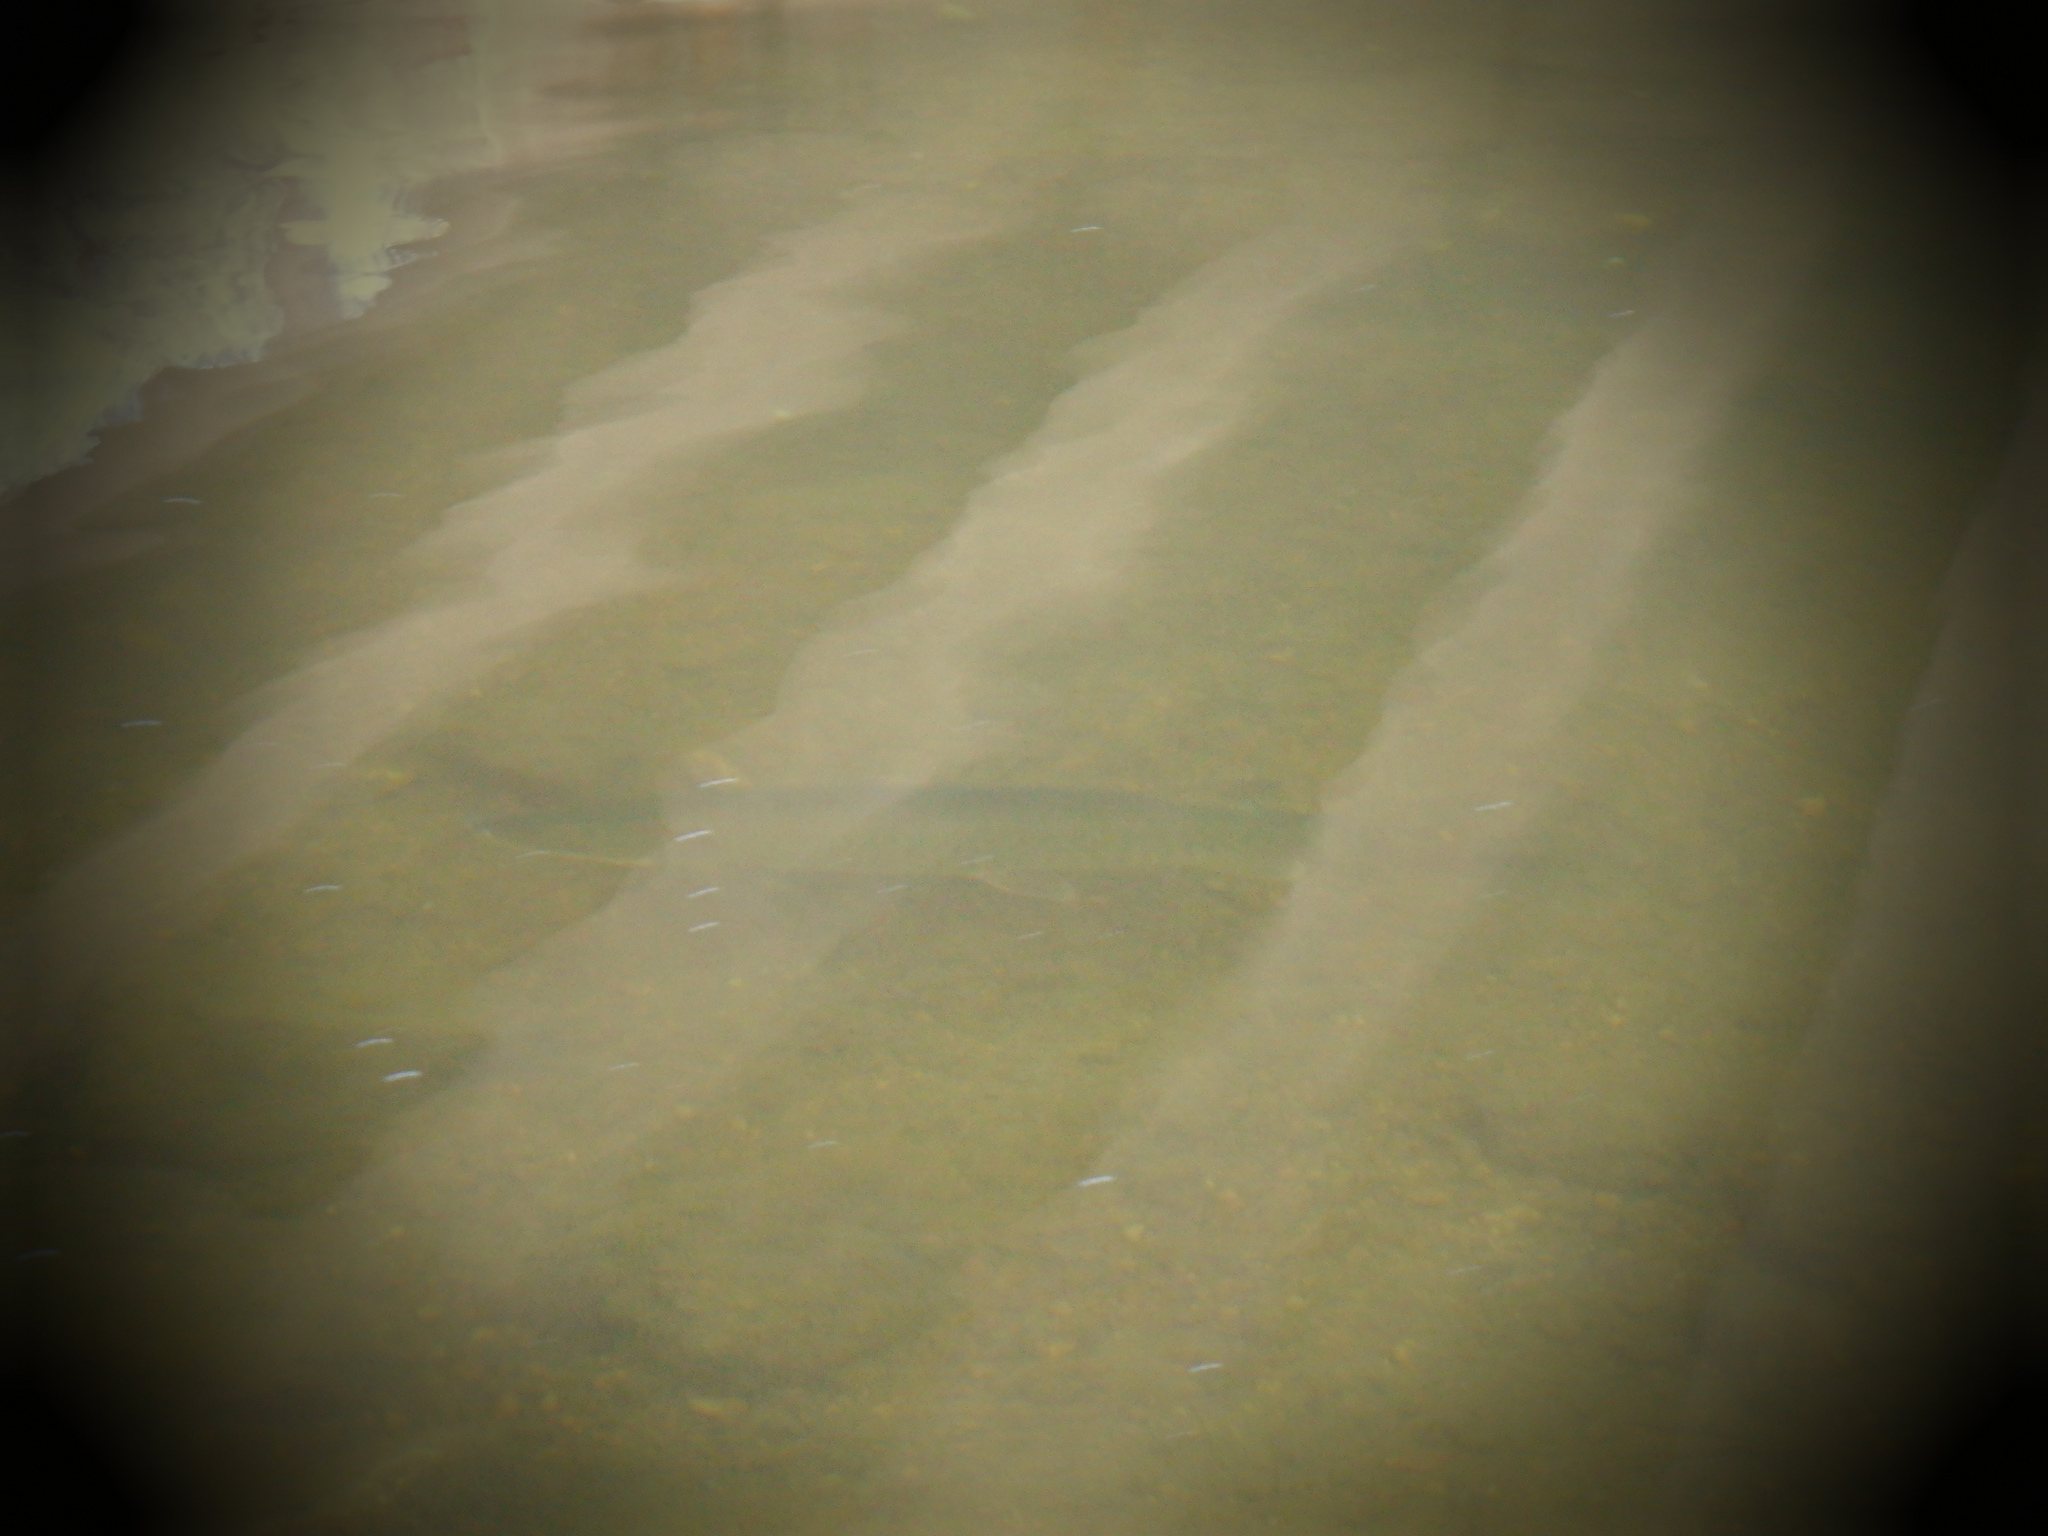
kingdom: Animalia
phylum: Chordata
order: Esociformes
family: Esocidae
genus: Esox
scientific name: Esox masquinongy
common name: Muskellunge
